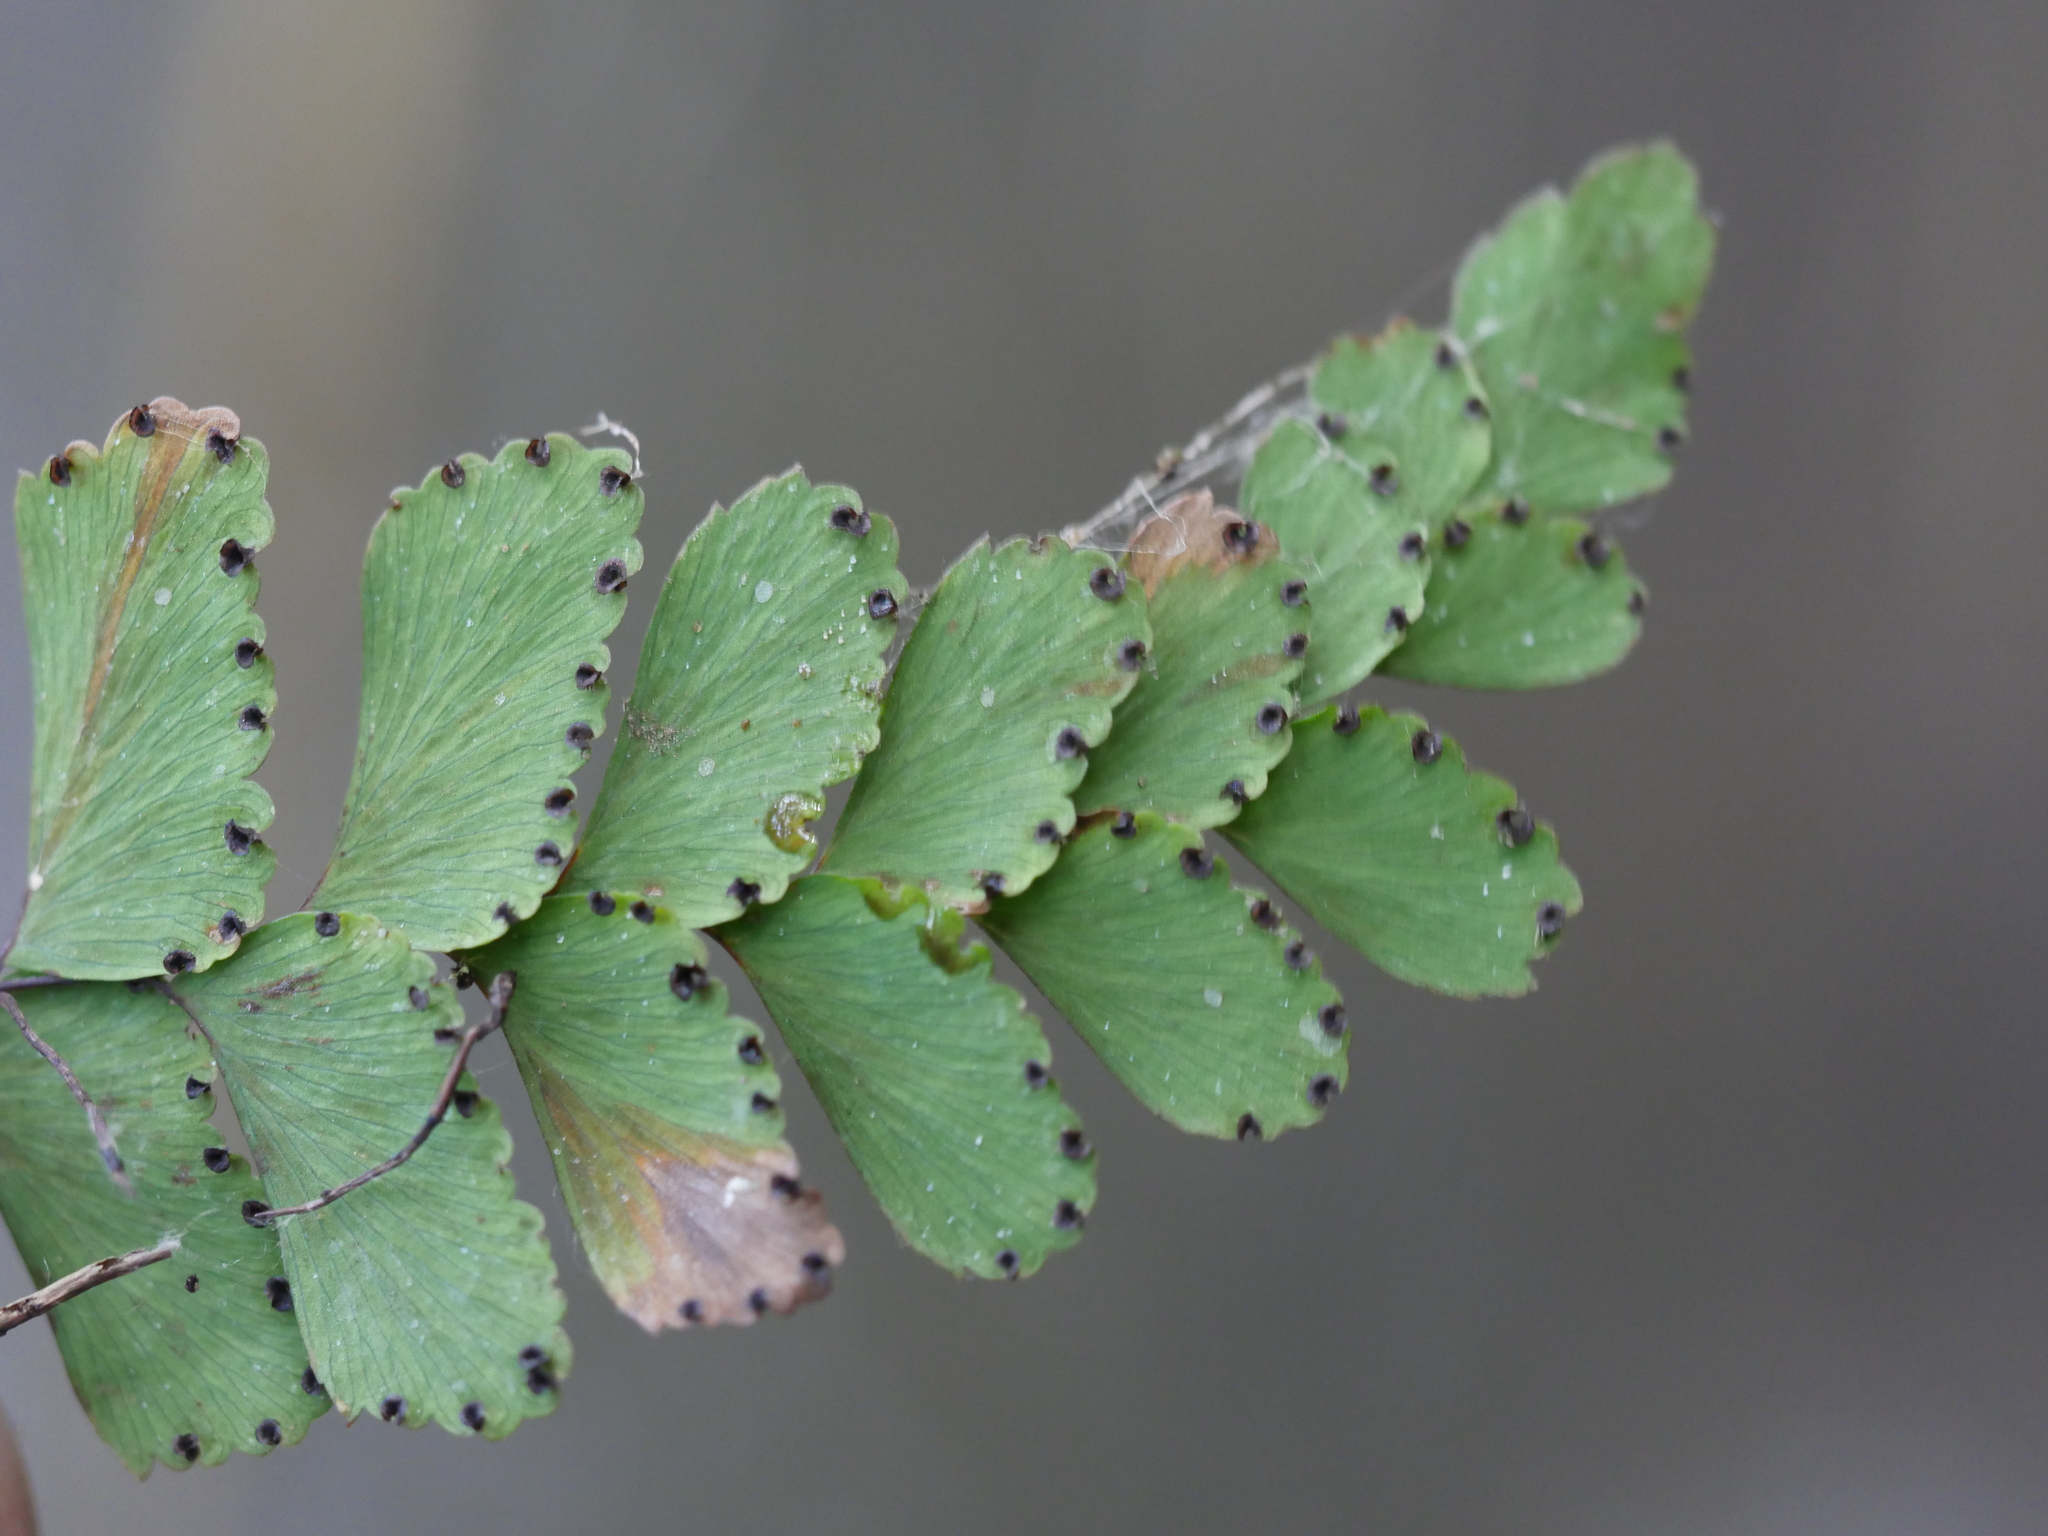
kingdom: Plantae
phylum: Tracheophyta
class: Polypodiopsida
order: Polypodiales
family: Pteridaceae
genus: Adiantum
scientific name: Adiantum cunninghamii
